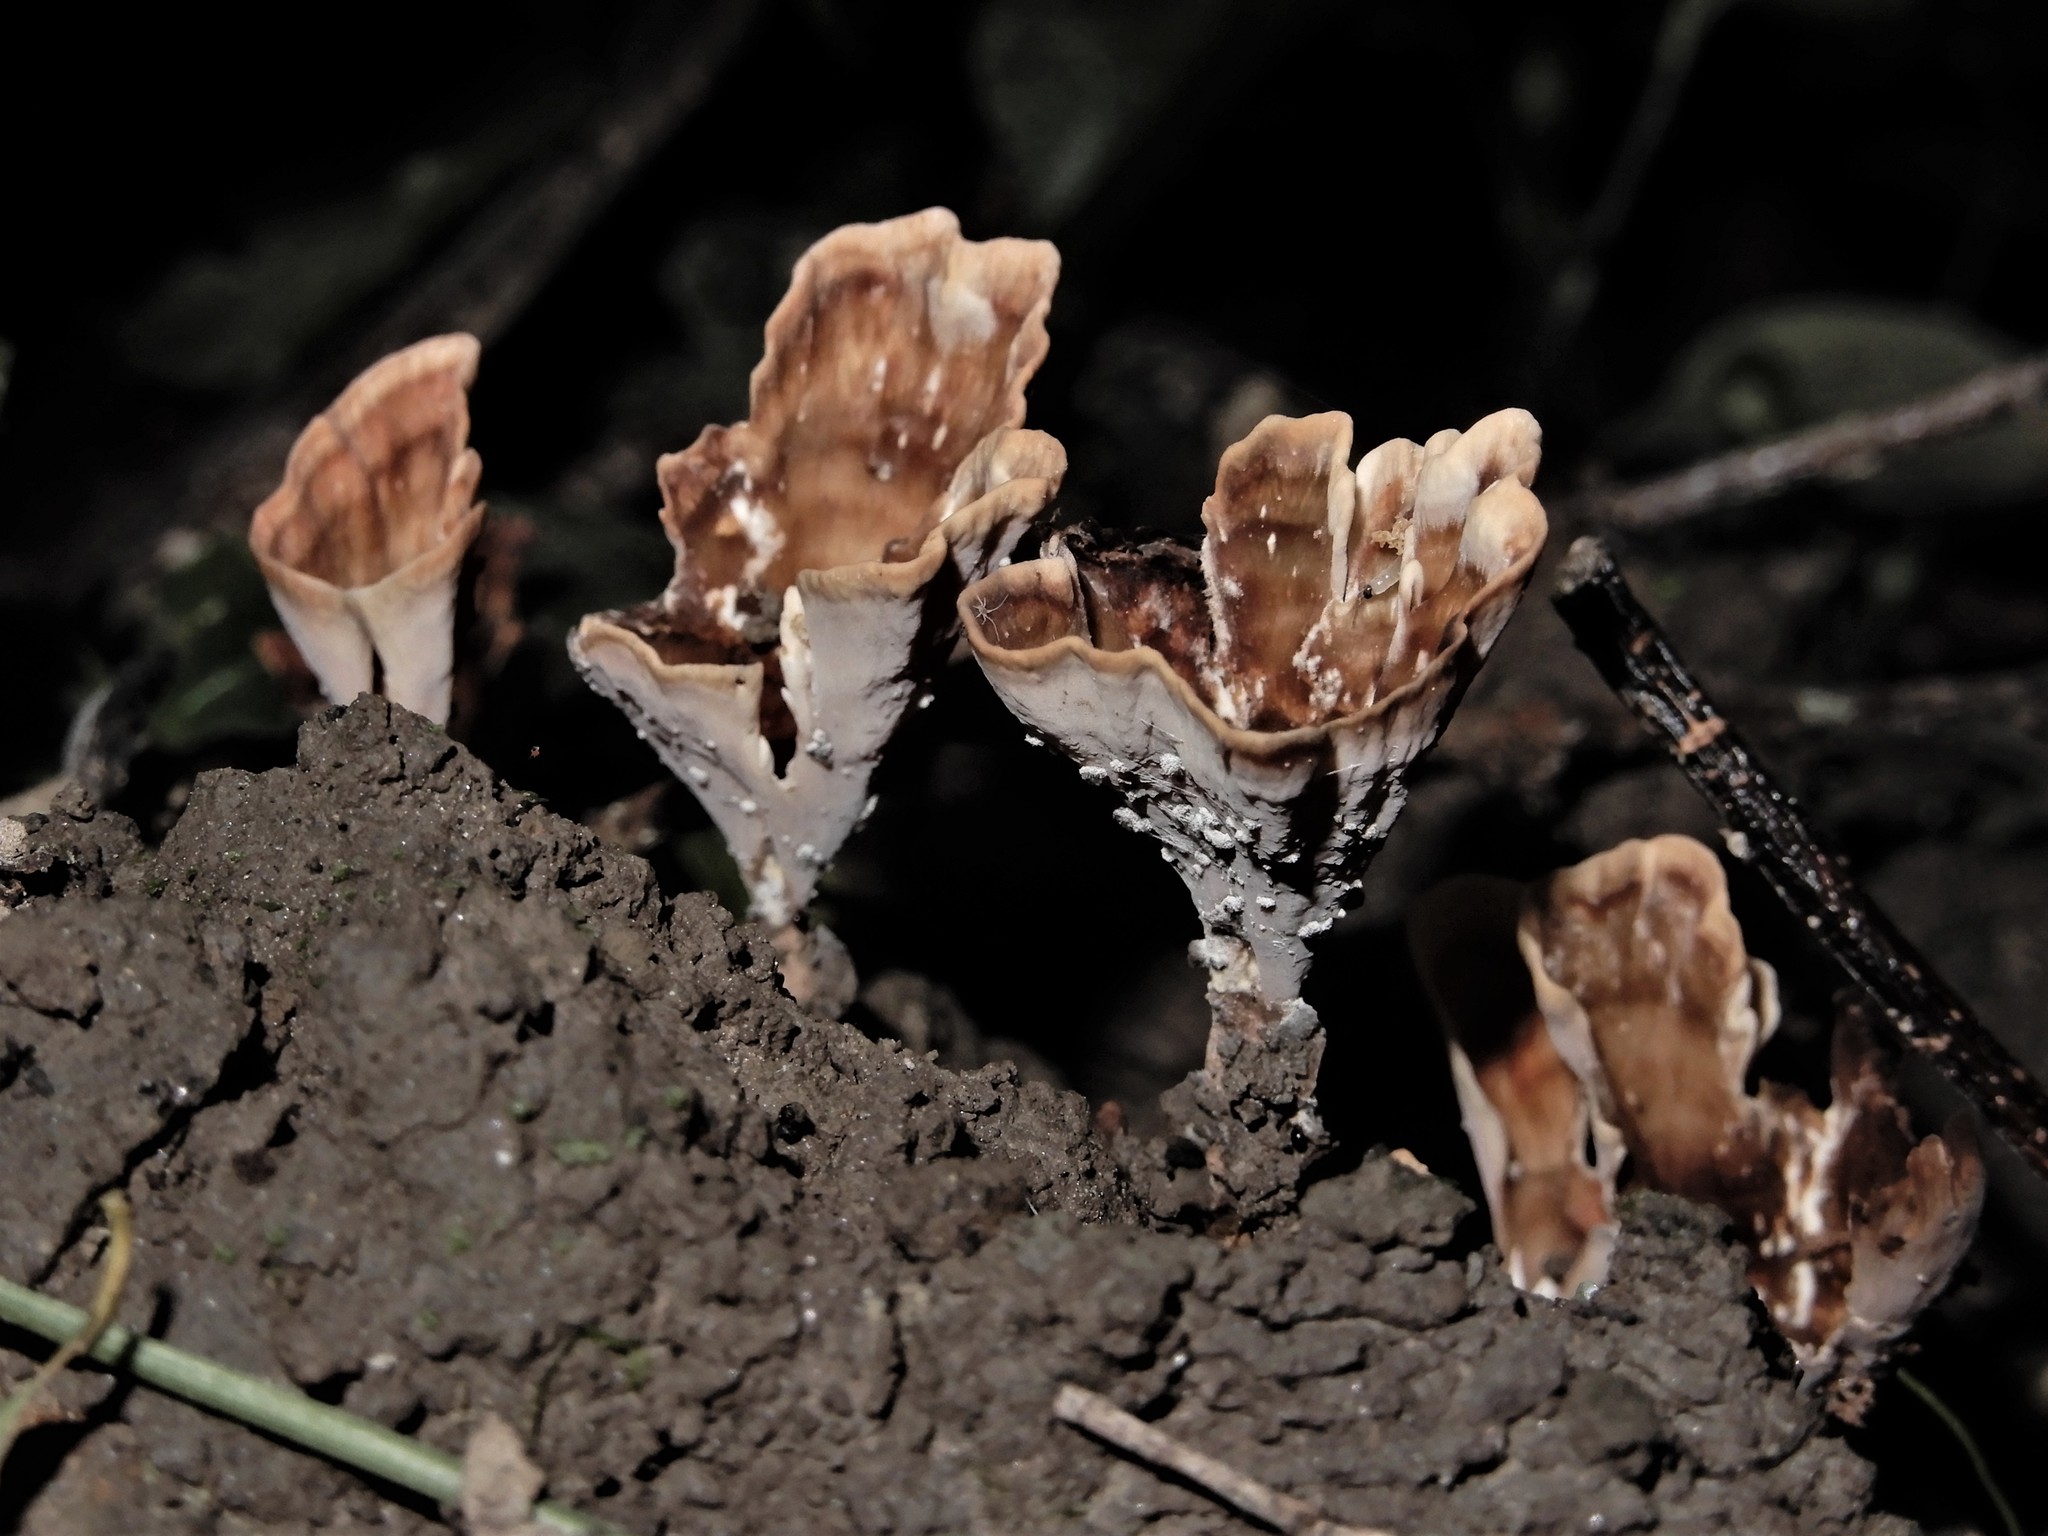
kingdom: Fungi
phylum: Basidiomycota
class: Agaricomycetes
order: Polyporales
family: Podoscyphaceae
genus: Podoscypha
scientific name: Podoscypha petalodes
